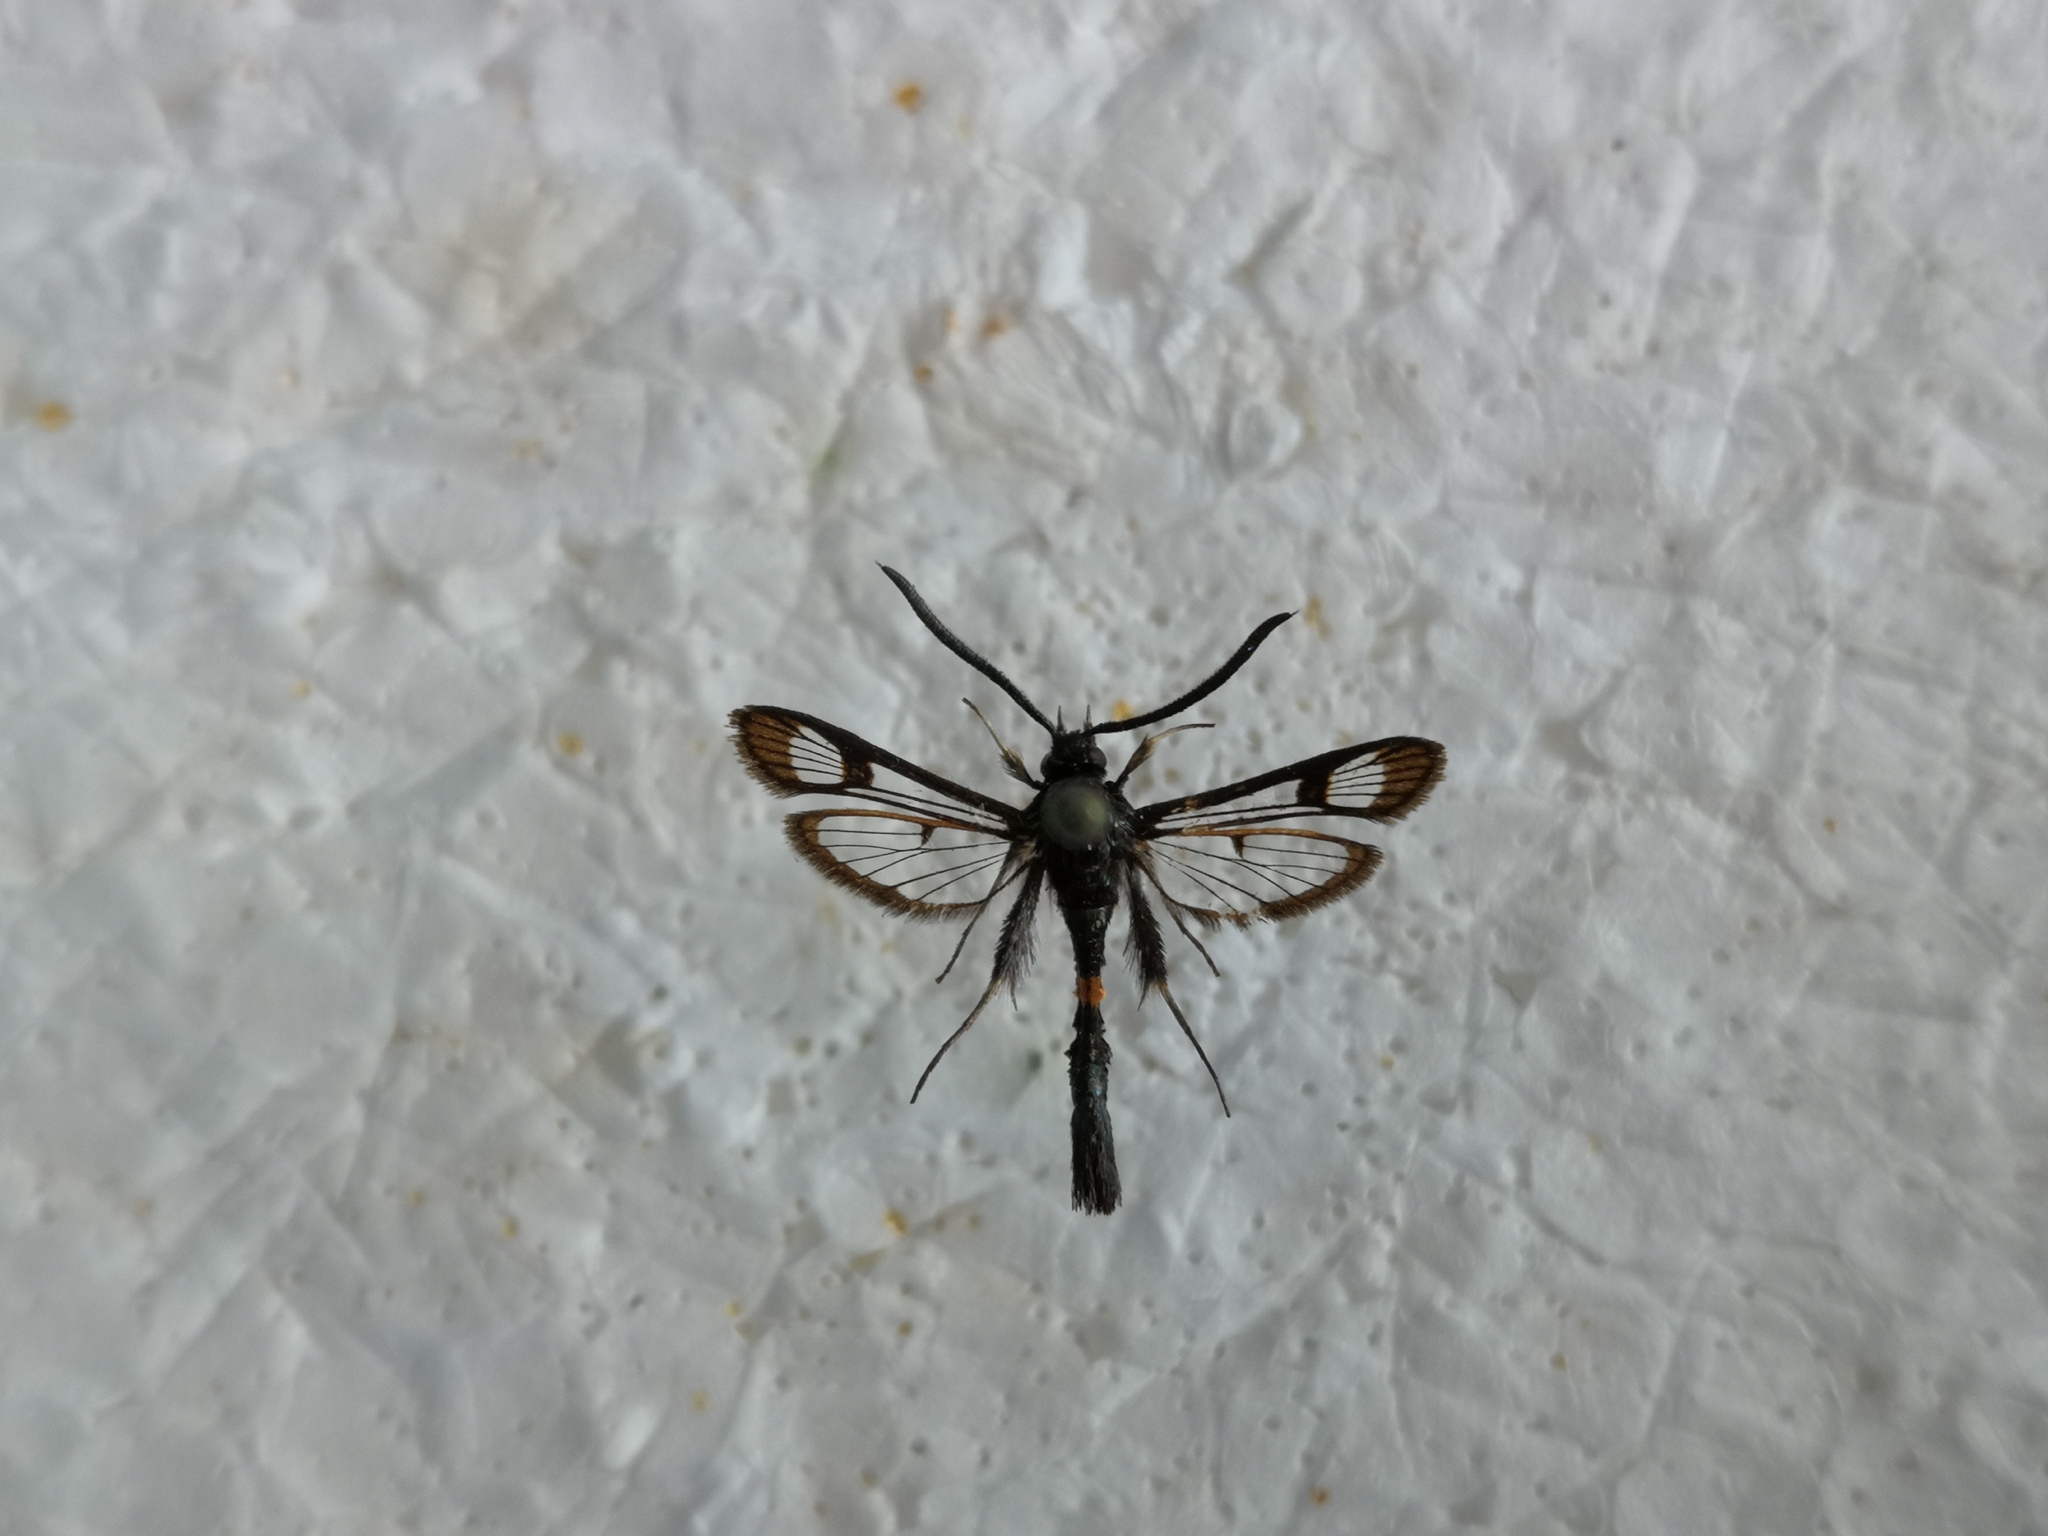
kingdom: Animalia
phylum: Arthropoda
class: Insecta
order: Lepidoptera
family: Sesiidae
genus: Synanthedon
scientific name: Synanthedon myopaeformis
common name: Red-belted clearwing
